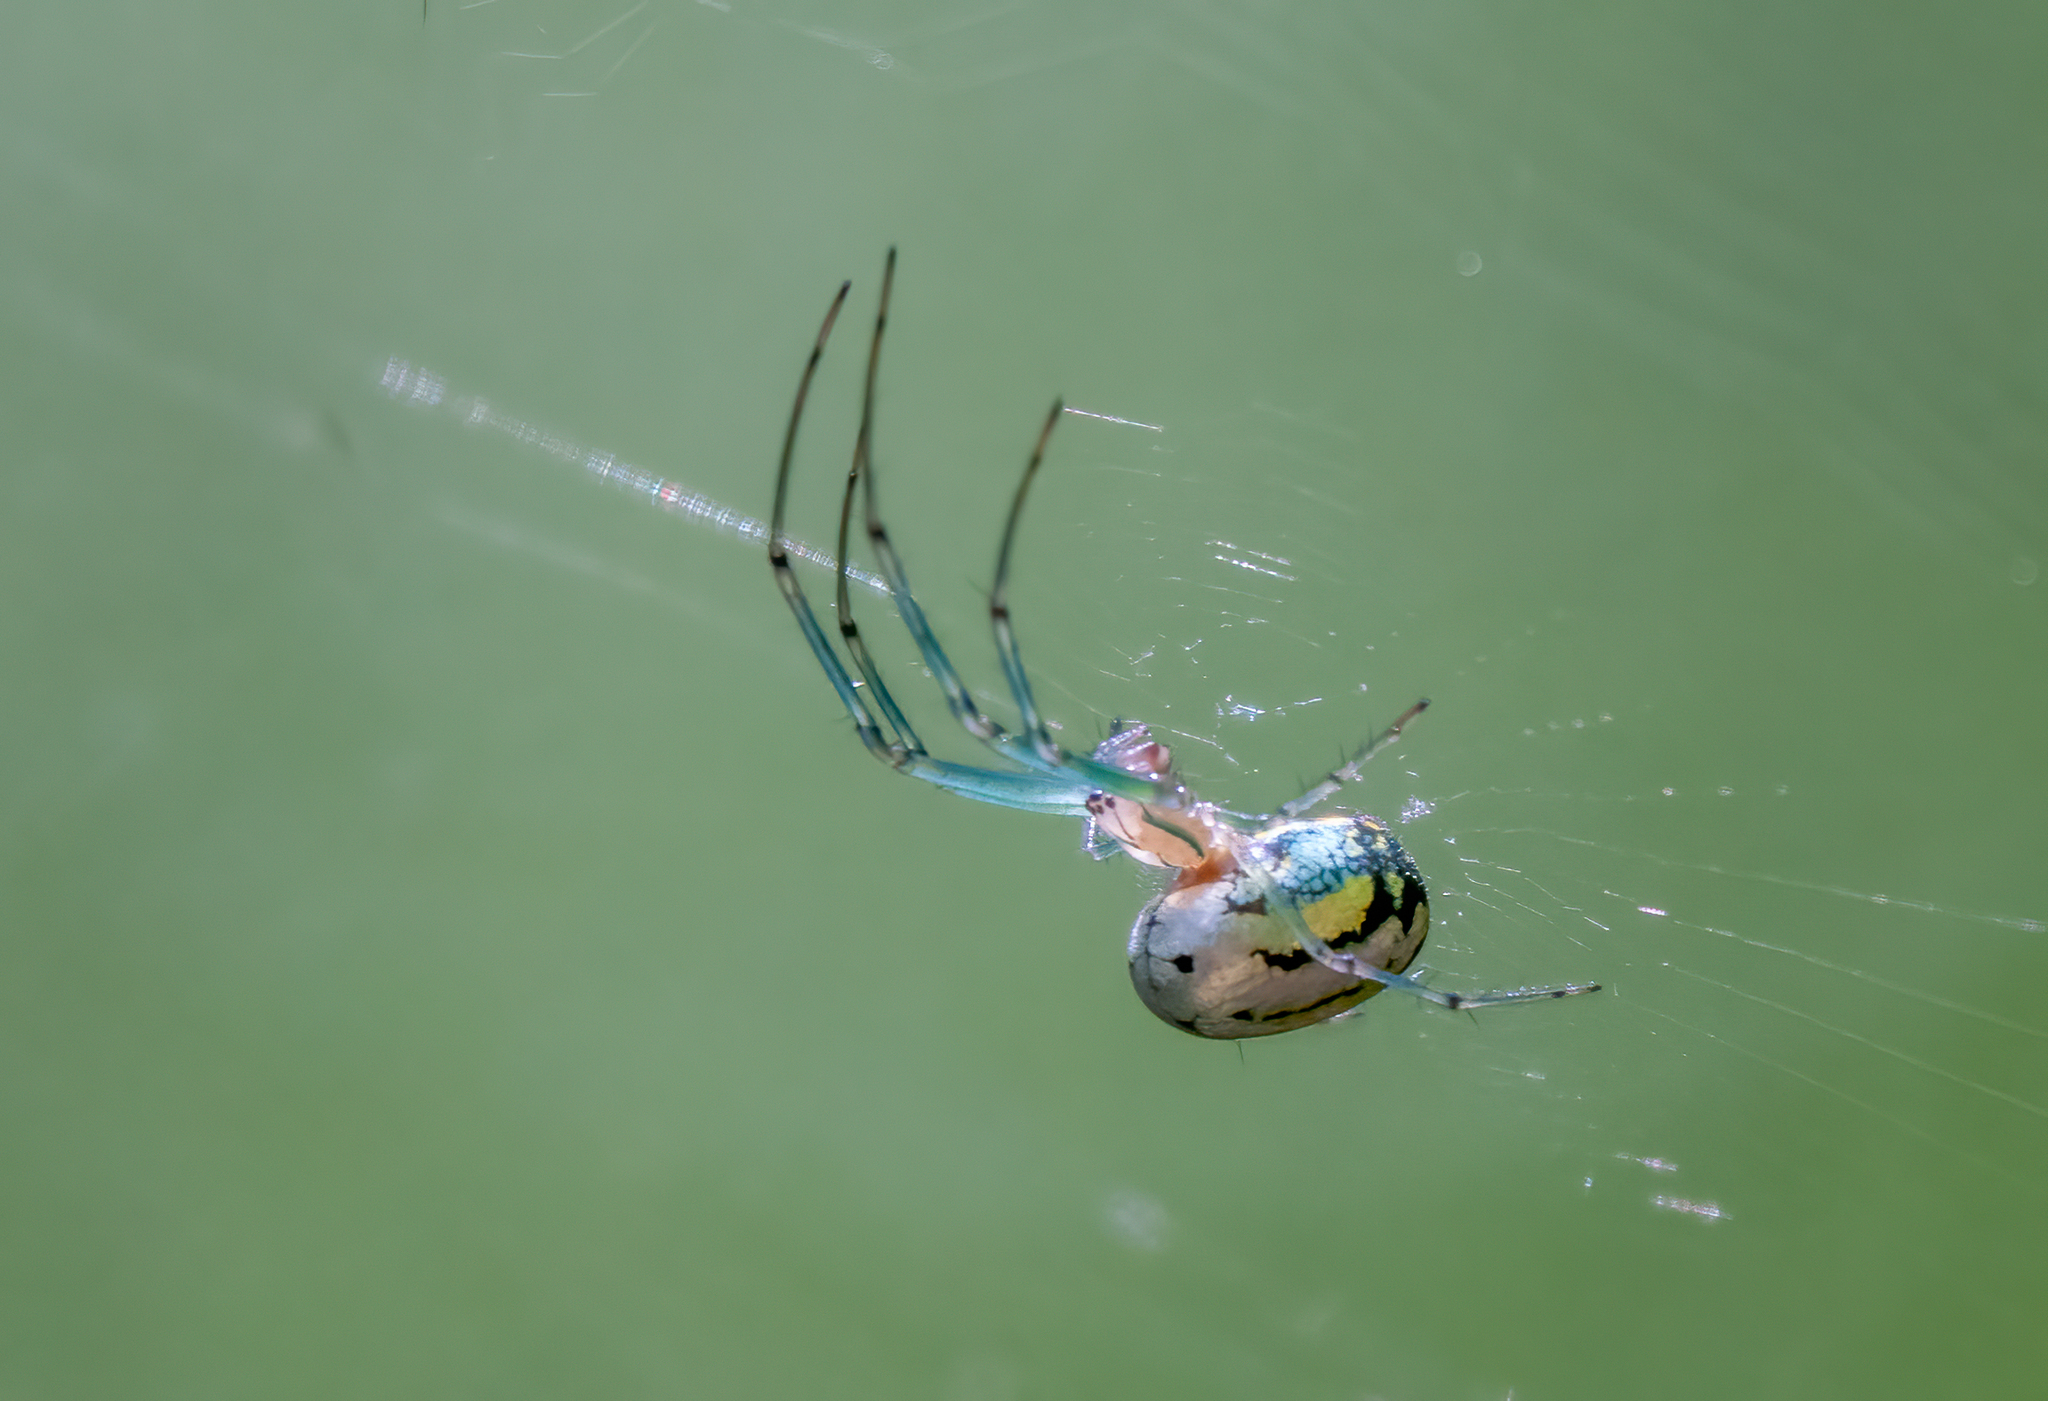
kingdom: Animalia
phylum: Arthropoda
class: Arachnida
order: Araneae
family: Tetragnathidae
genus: Leucauge
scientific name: Leucauge venusta
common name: Longjawed orb weavers
